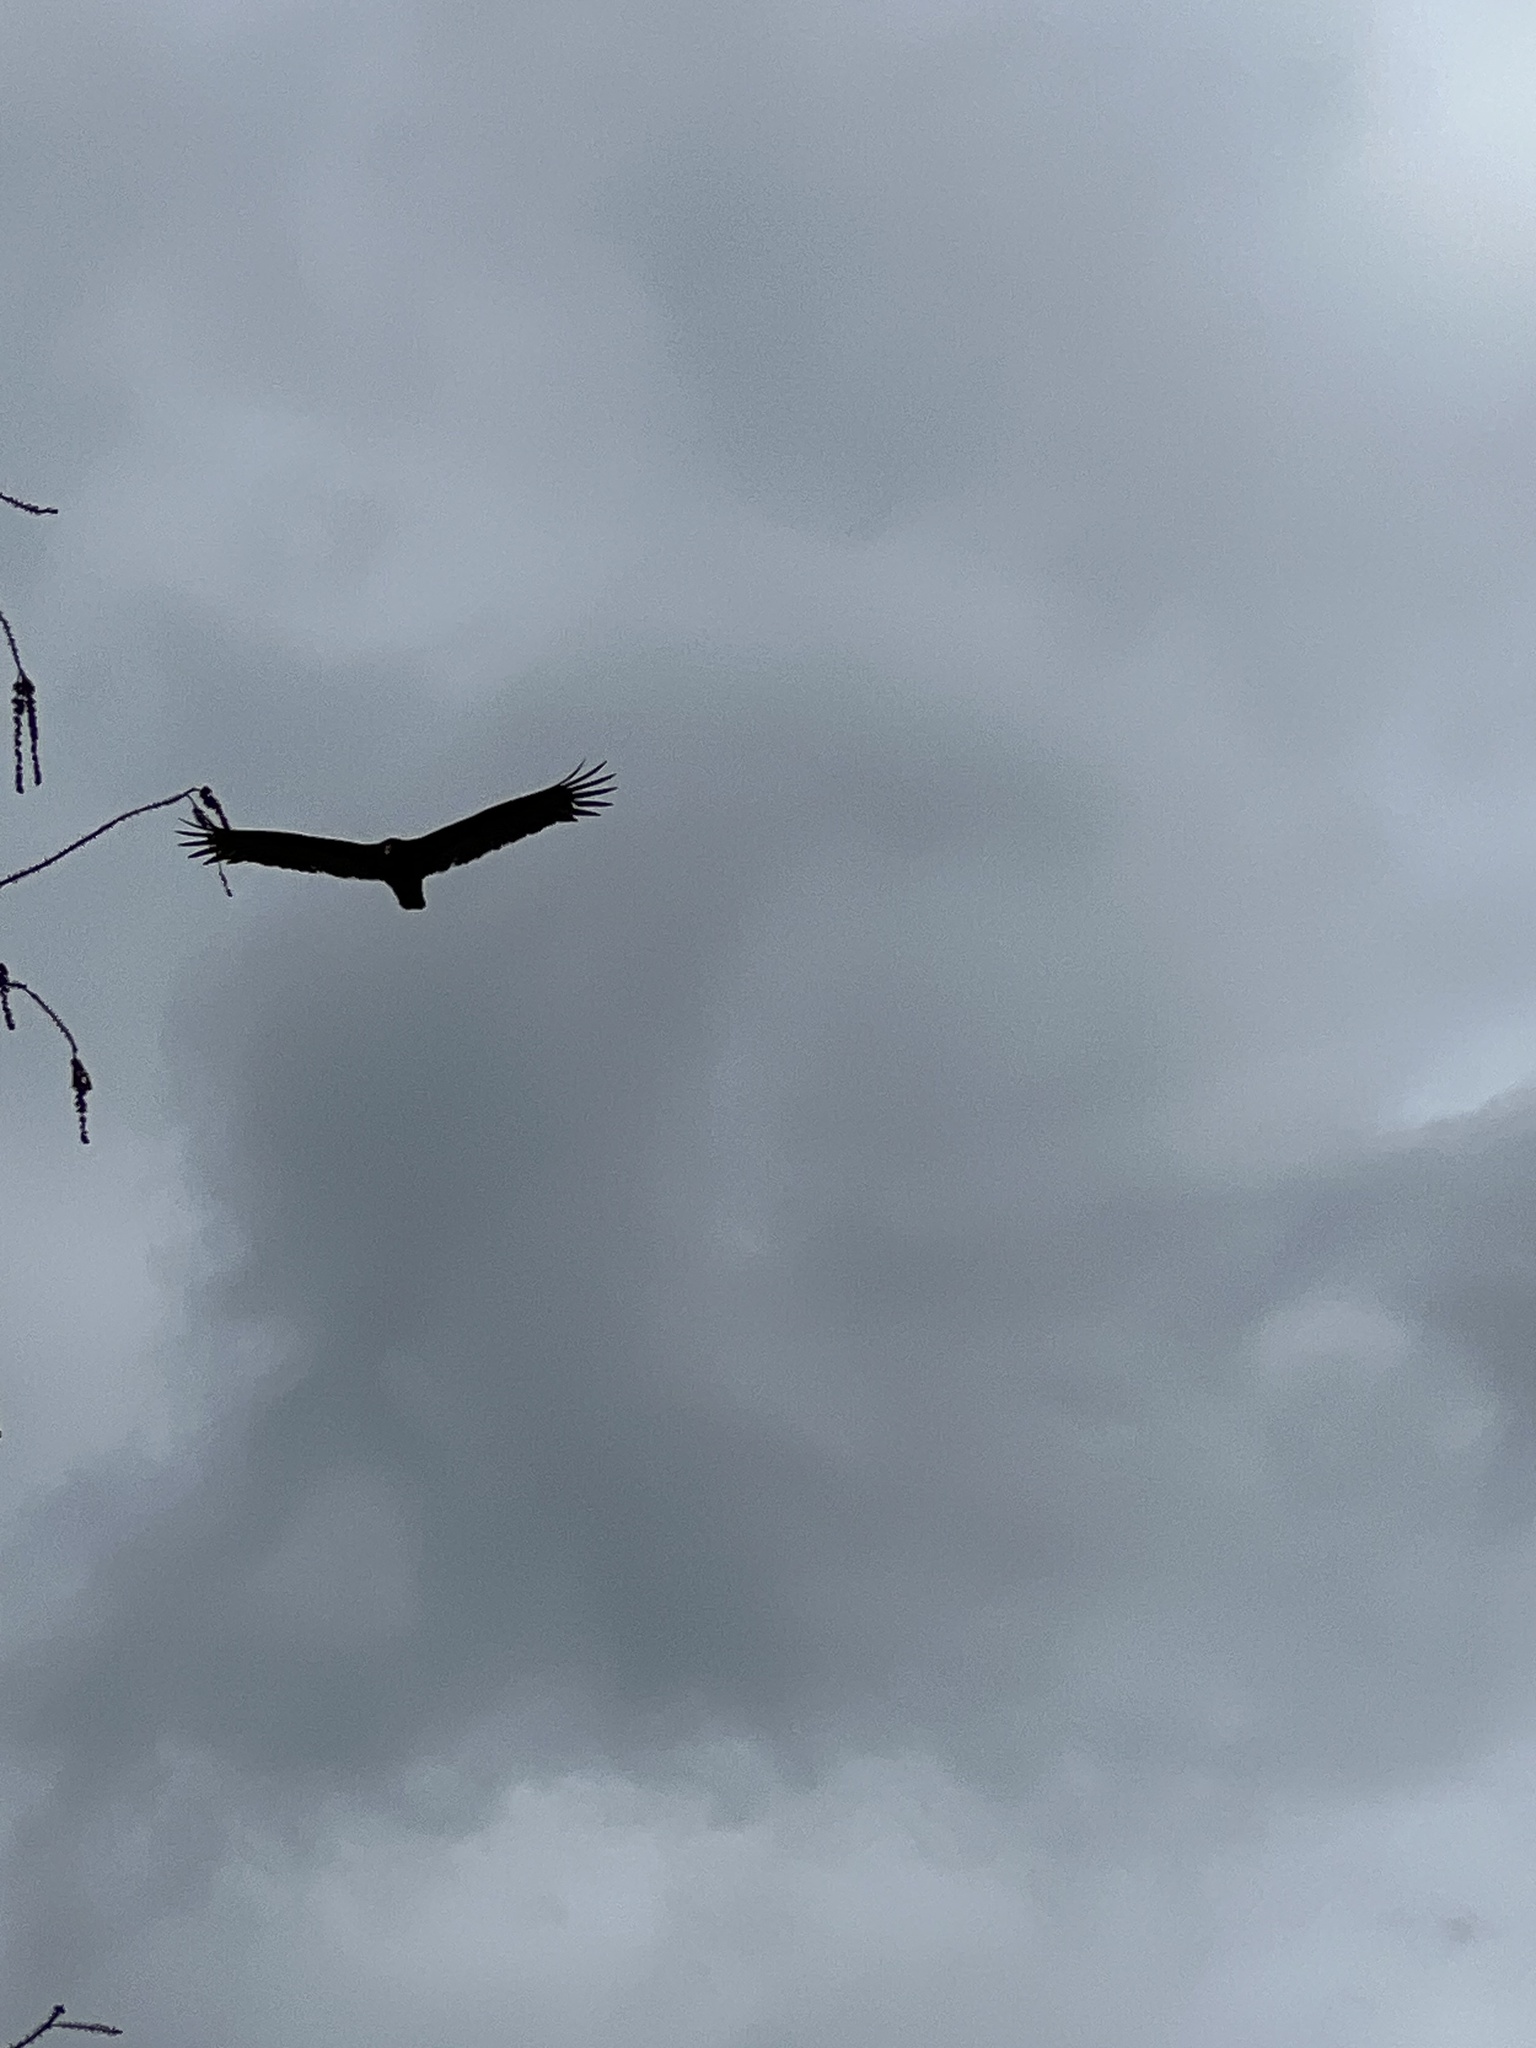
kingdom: Animalia
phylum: Chordata
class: Aves
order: Accipitriformes
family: Cathartidae
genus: Cathartes
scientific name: Cathartes aura
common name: Turkey vulture
